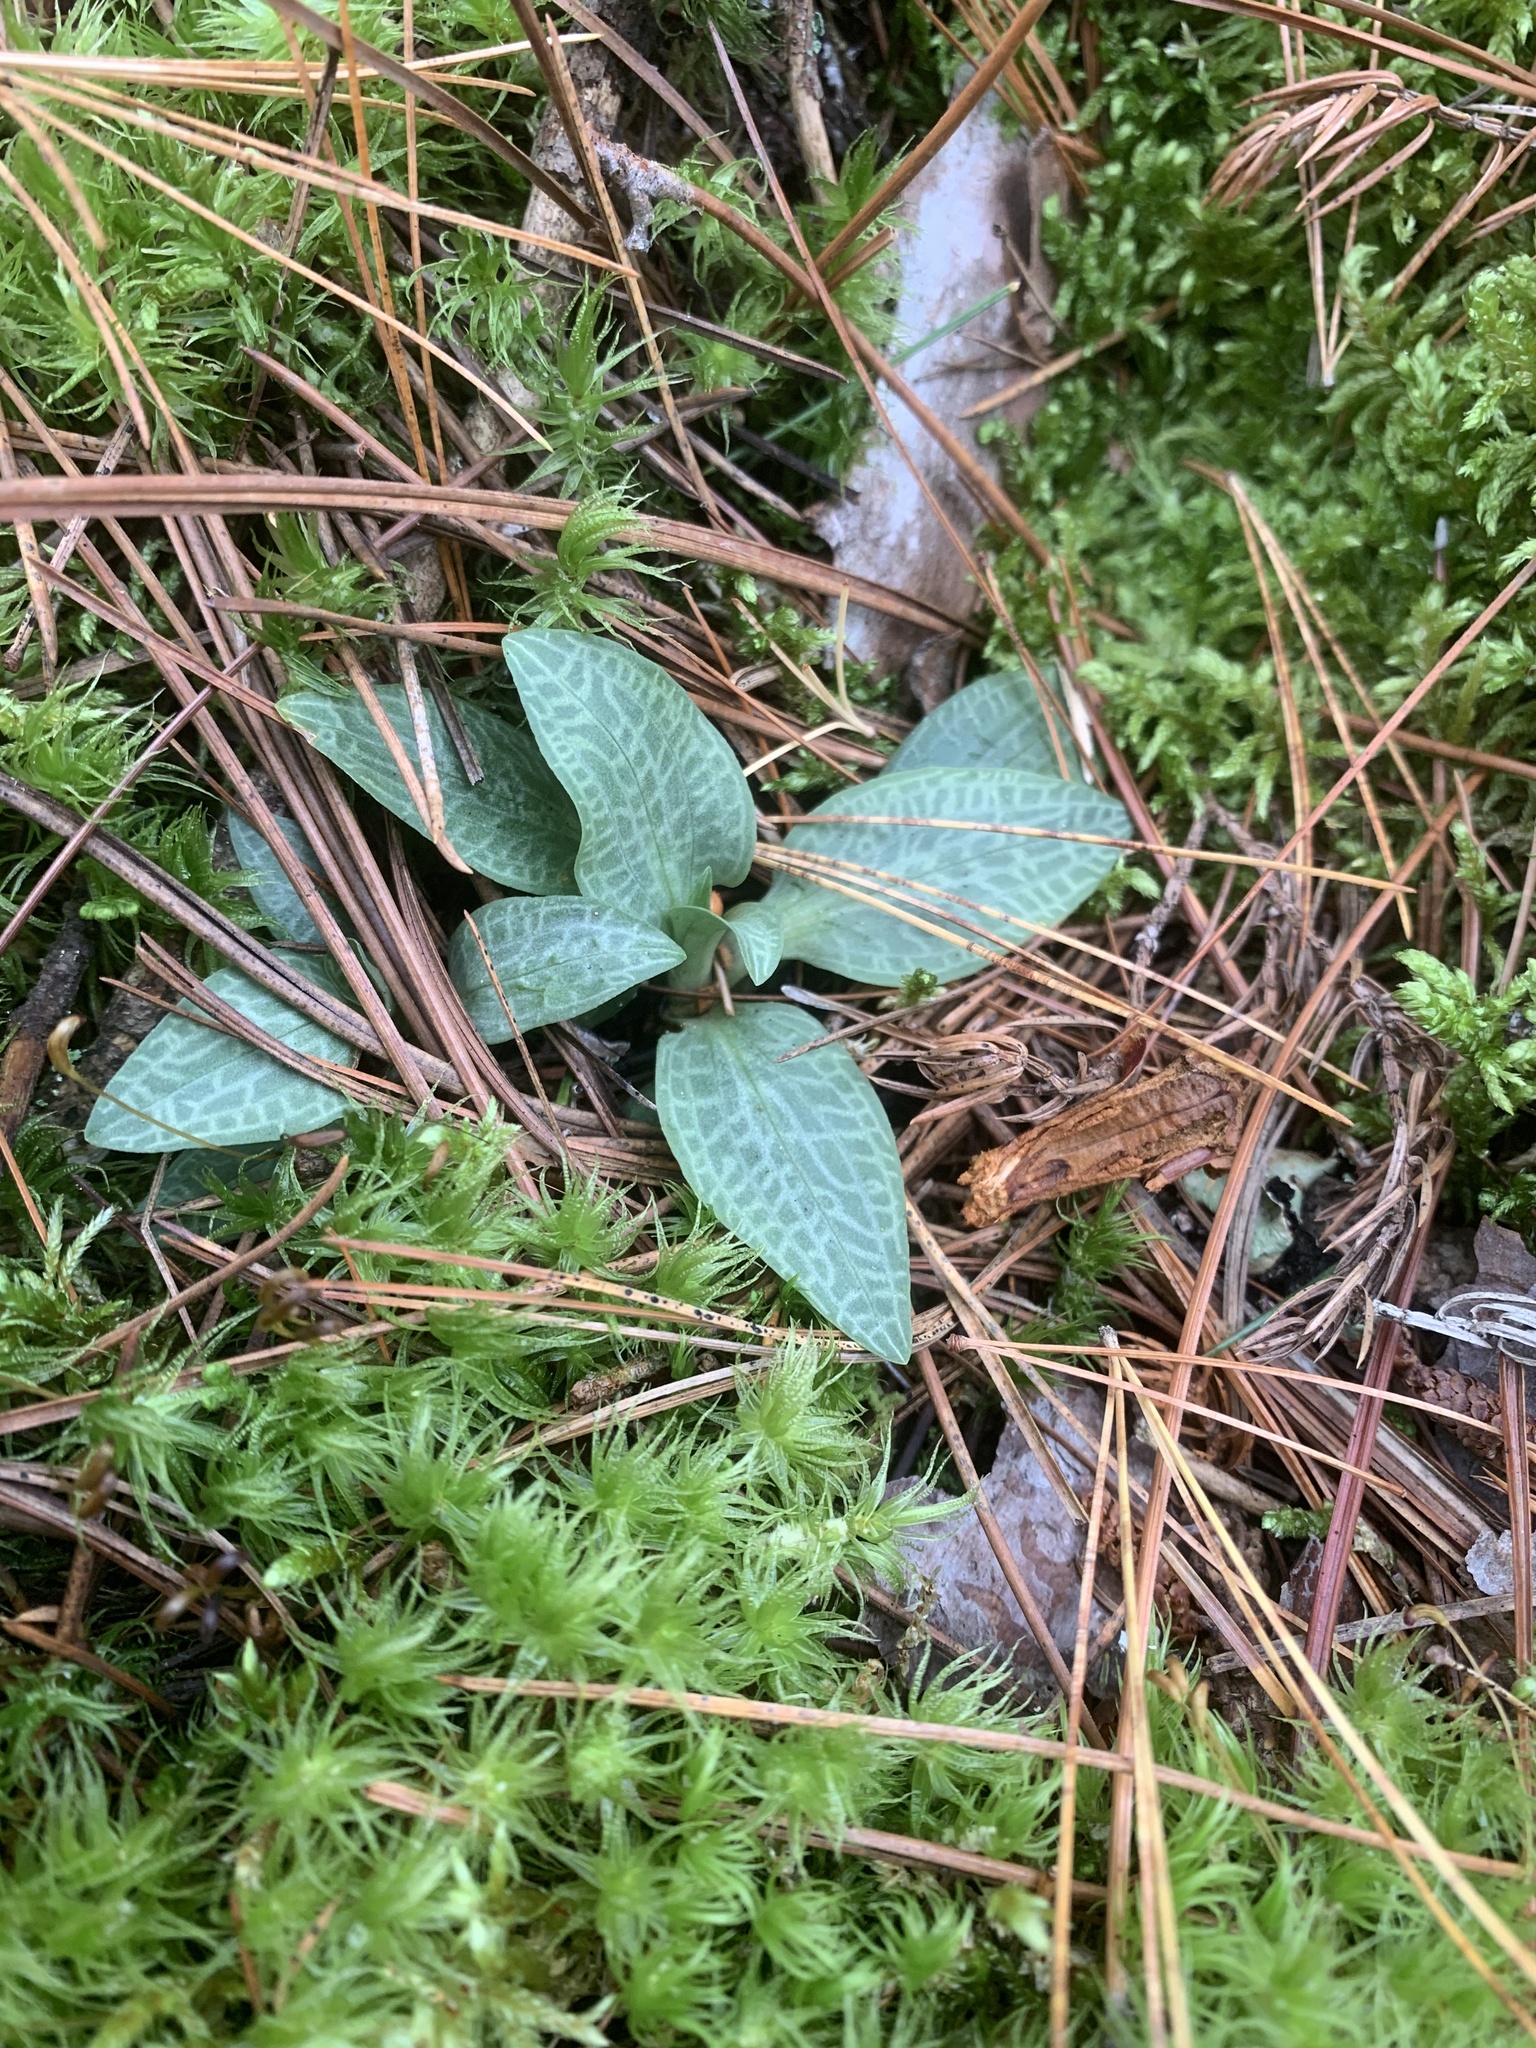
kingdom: Plantae
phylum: Tracheophyta
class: Liliopsida
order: Asparagales
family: Orchidaceae
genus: Goodyera
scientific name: Goodyera tesselata
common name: Checkered rattlesnake-plantain
